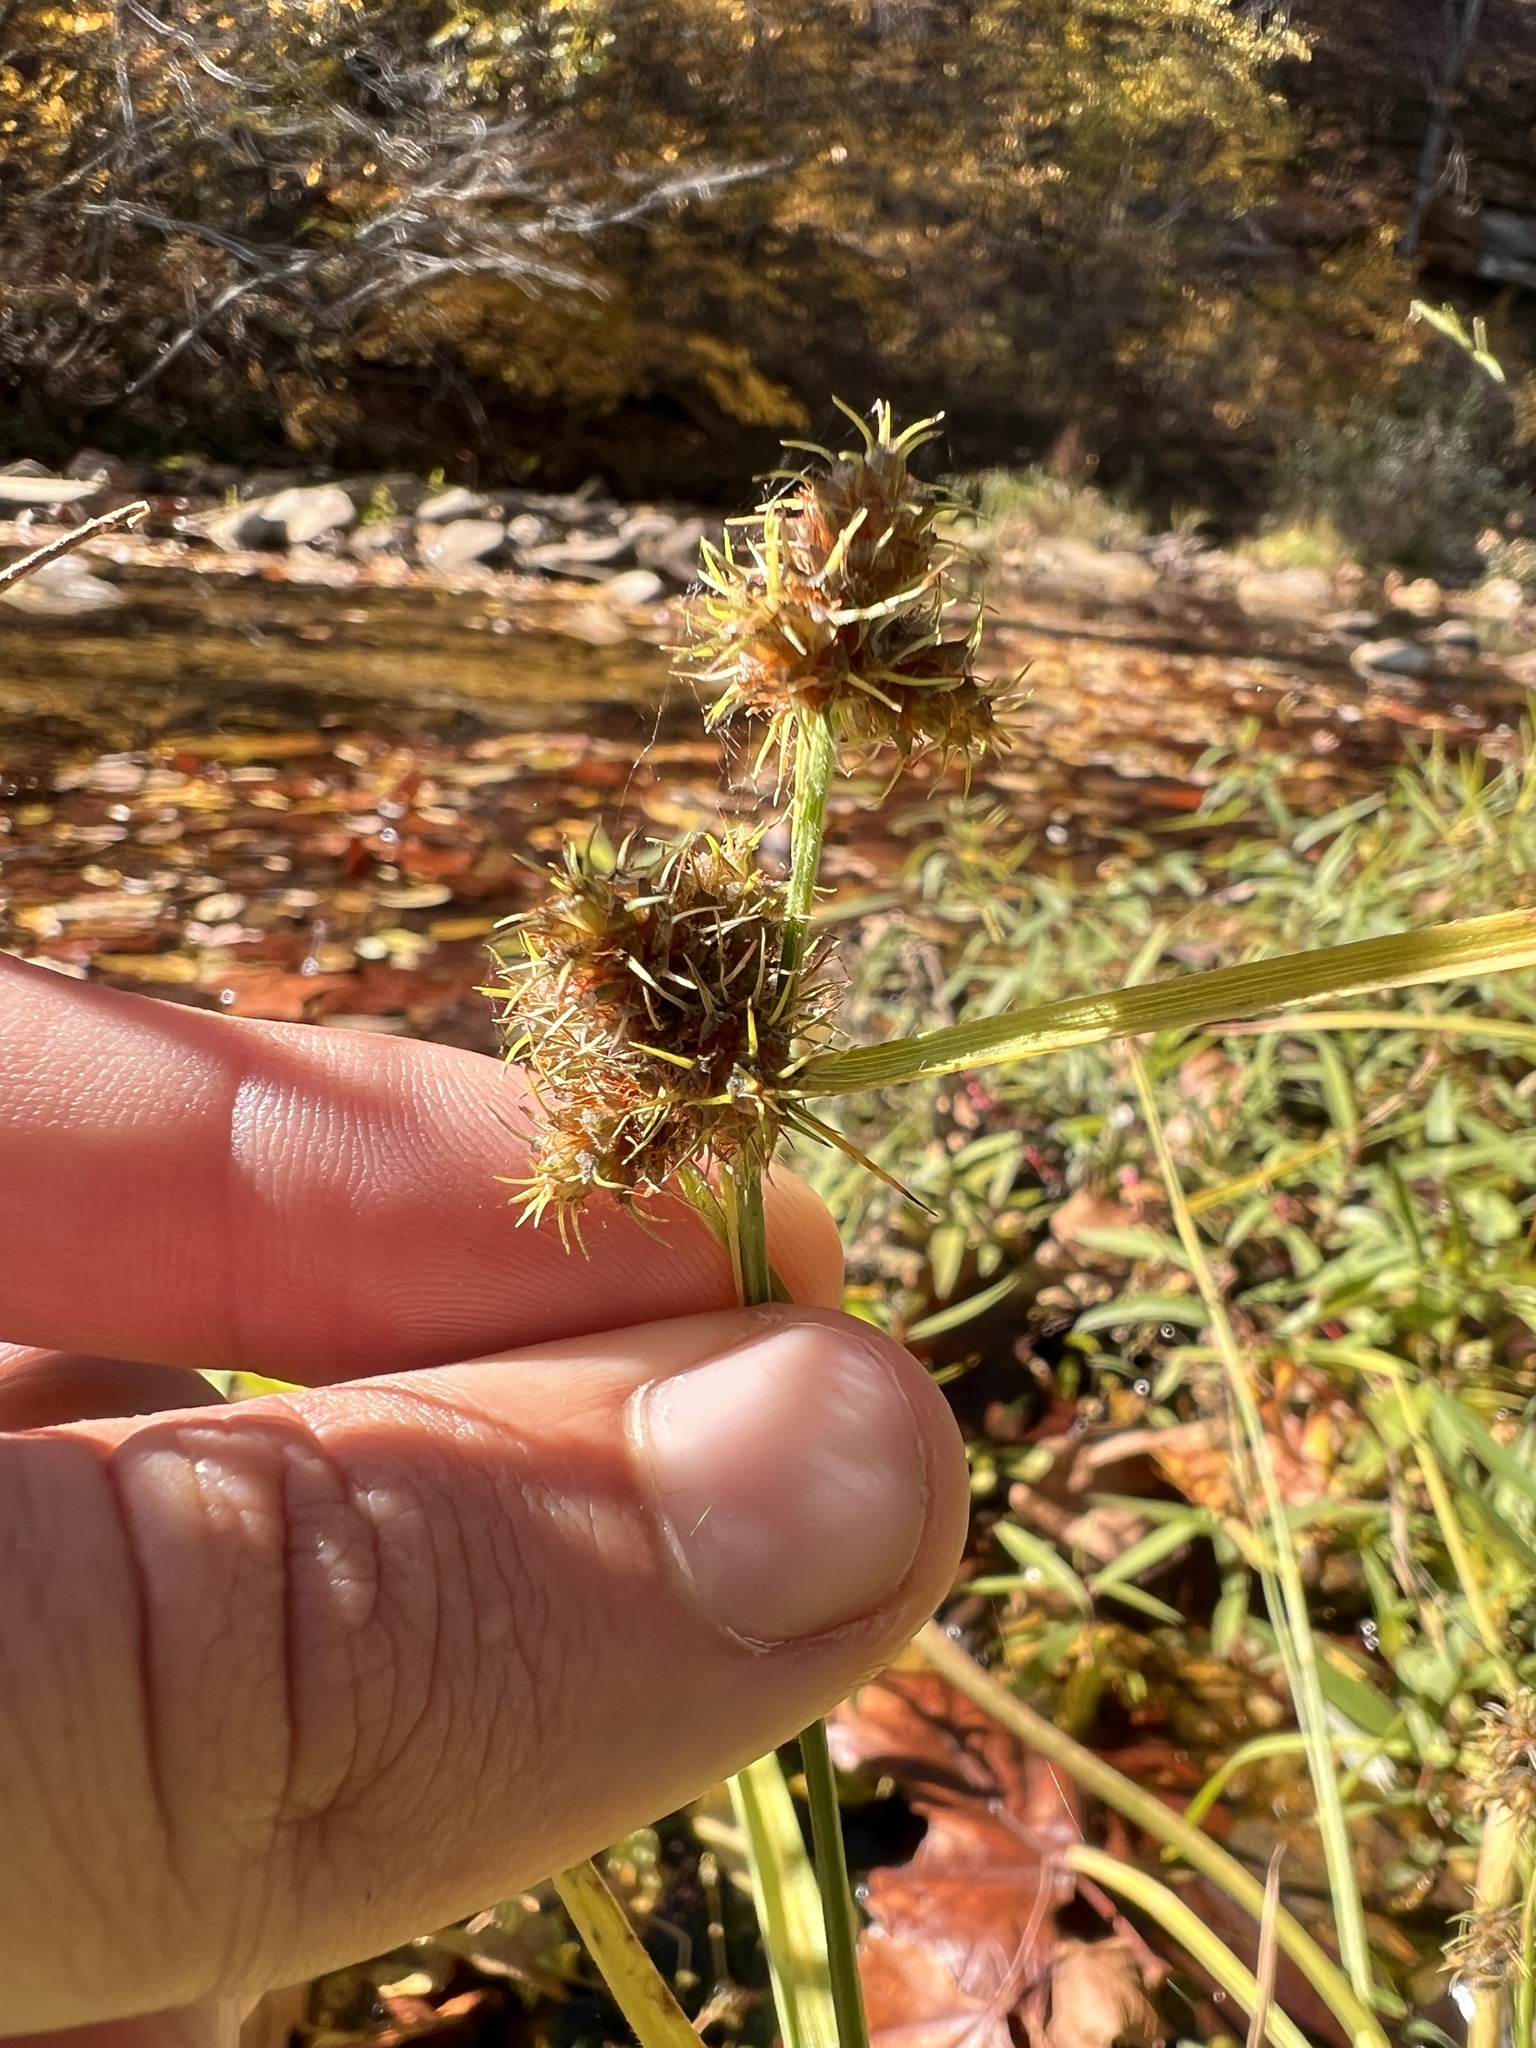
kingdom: Plantae
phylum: Tracheophyta
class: Liliopsida
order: Poales
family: Cyperaceae
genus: Fuirena
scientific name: Fuirena simplex
